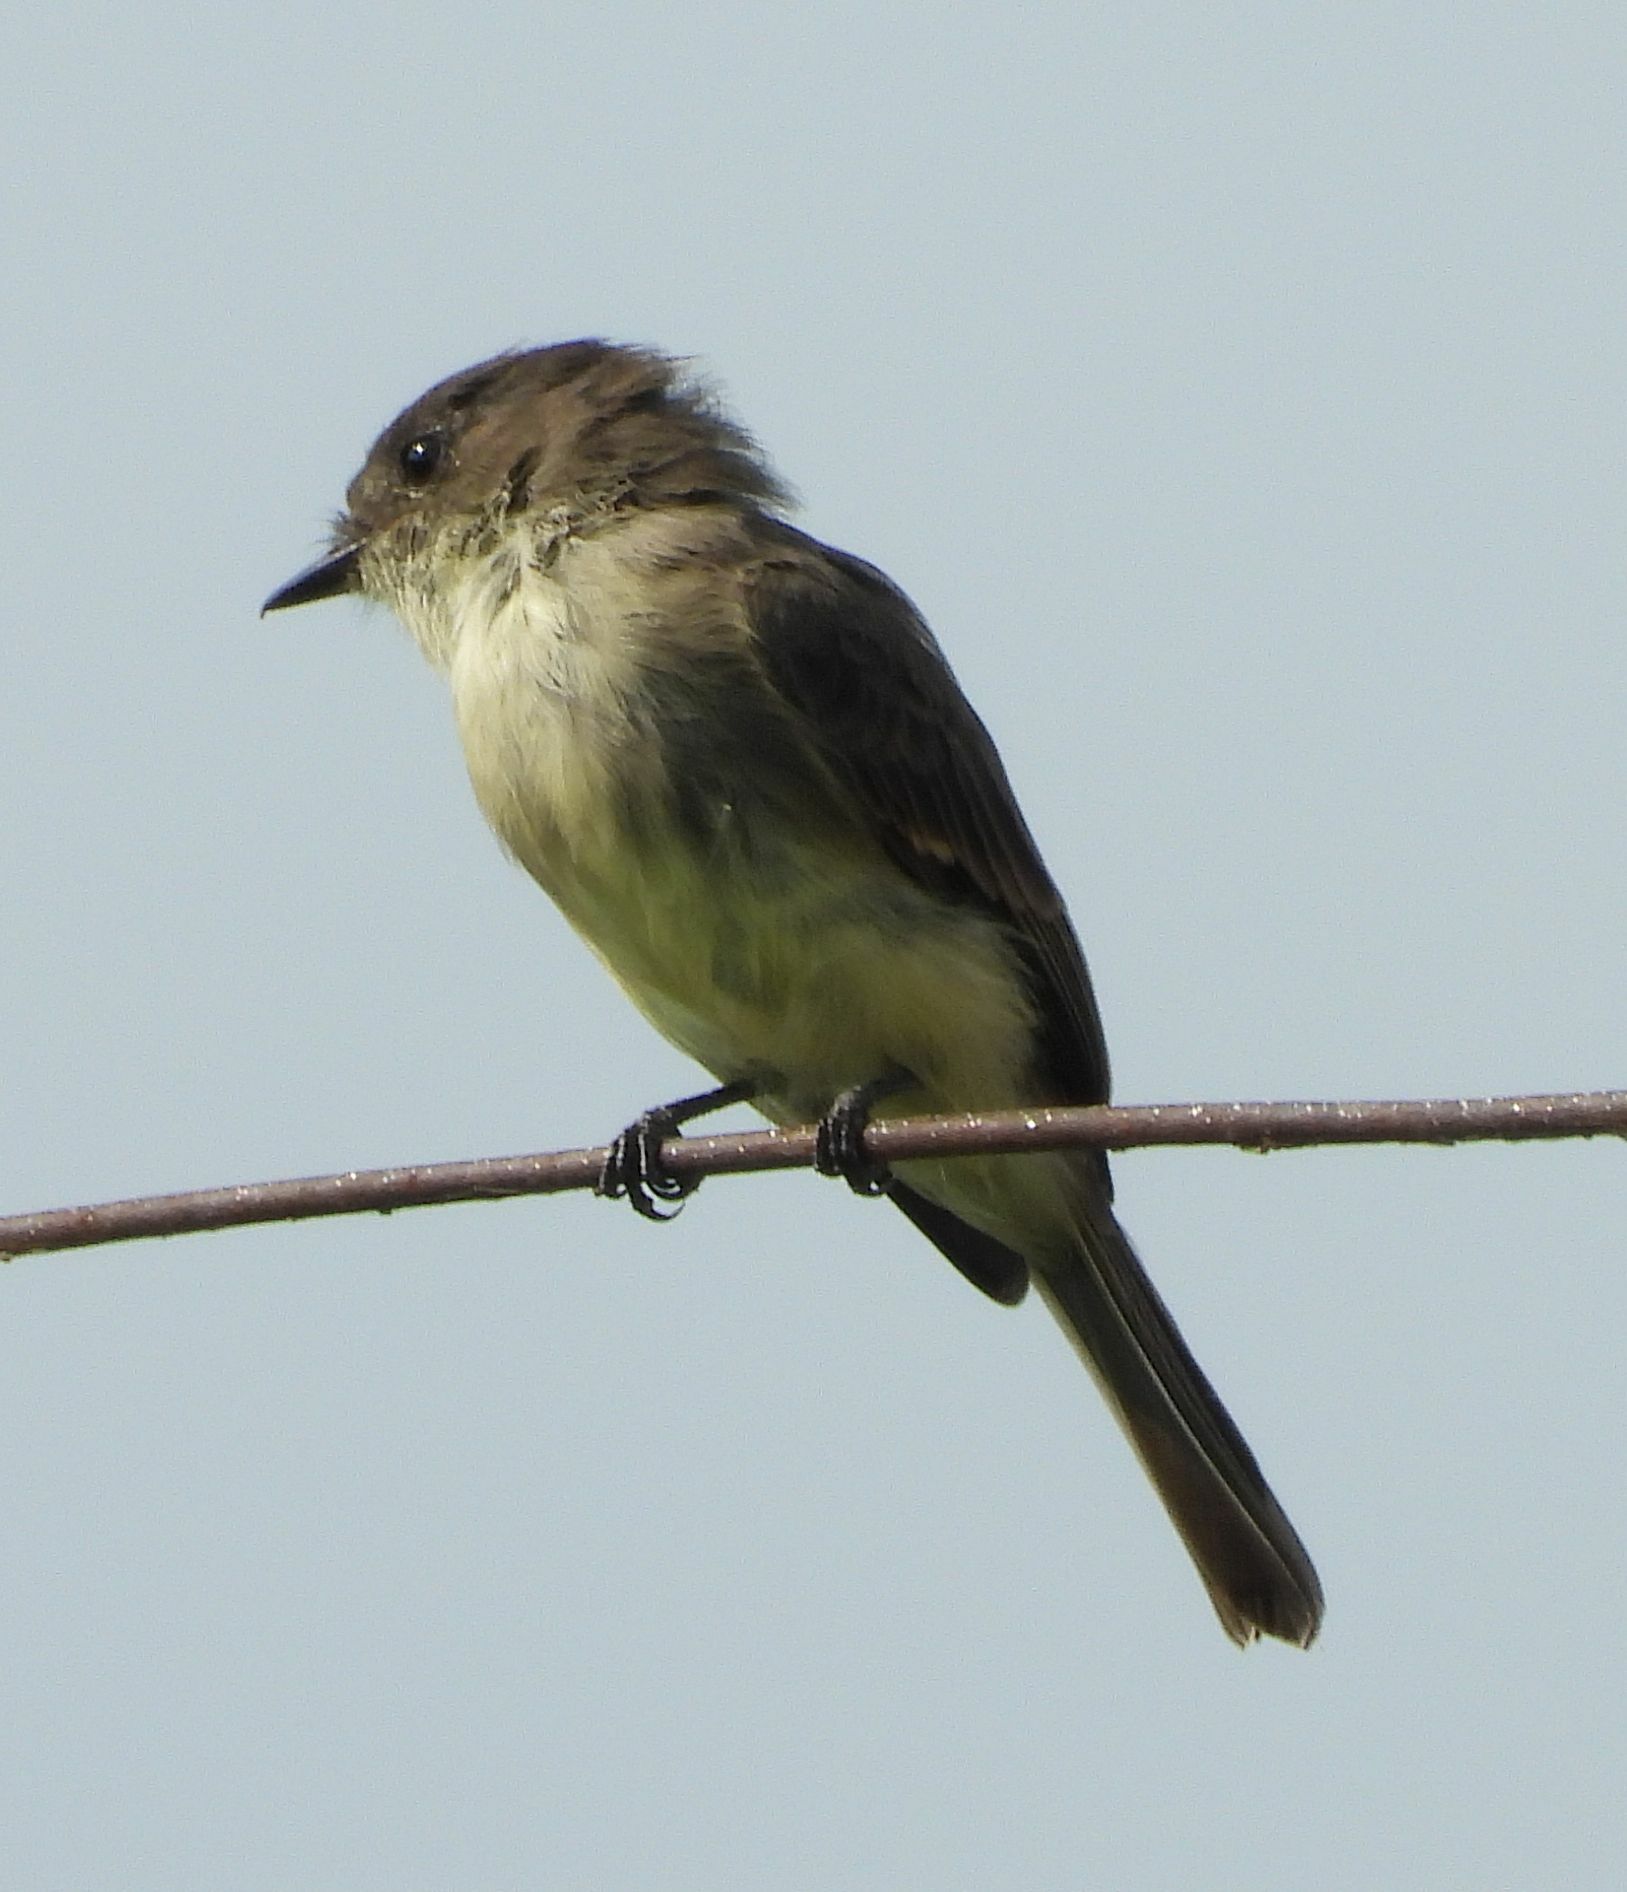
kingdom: Animalia
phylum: Chordata
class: Aves
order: Passeriformes
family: Tyrannidae
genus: Sayornis
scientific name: Sayornis phoebe
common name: Eastern phoebe
